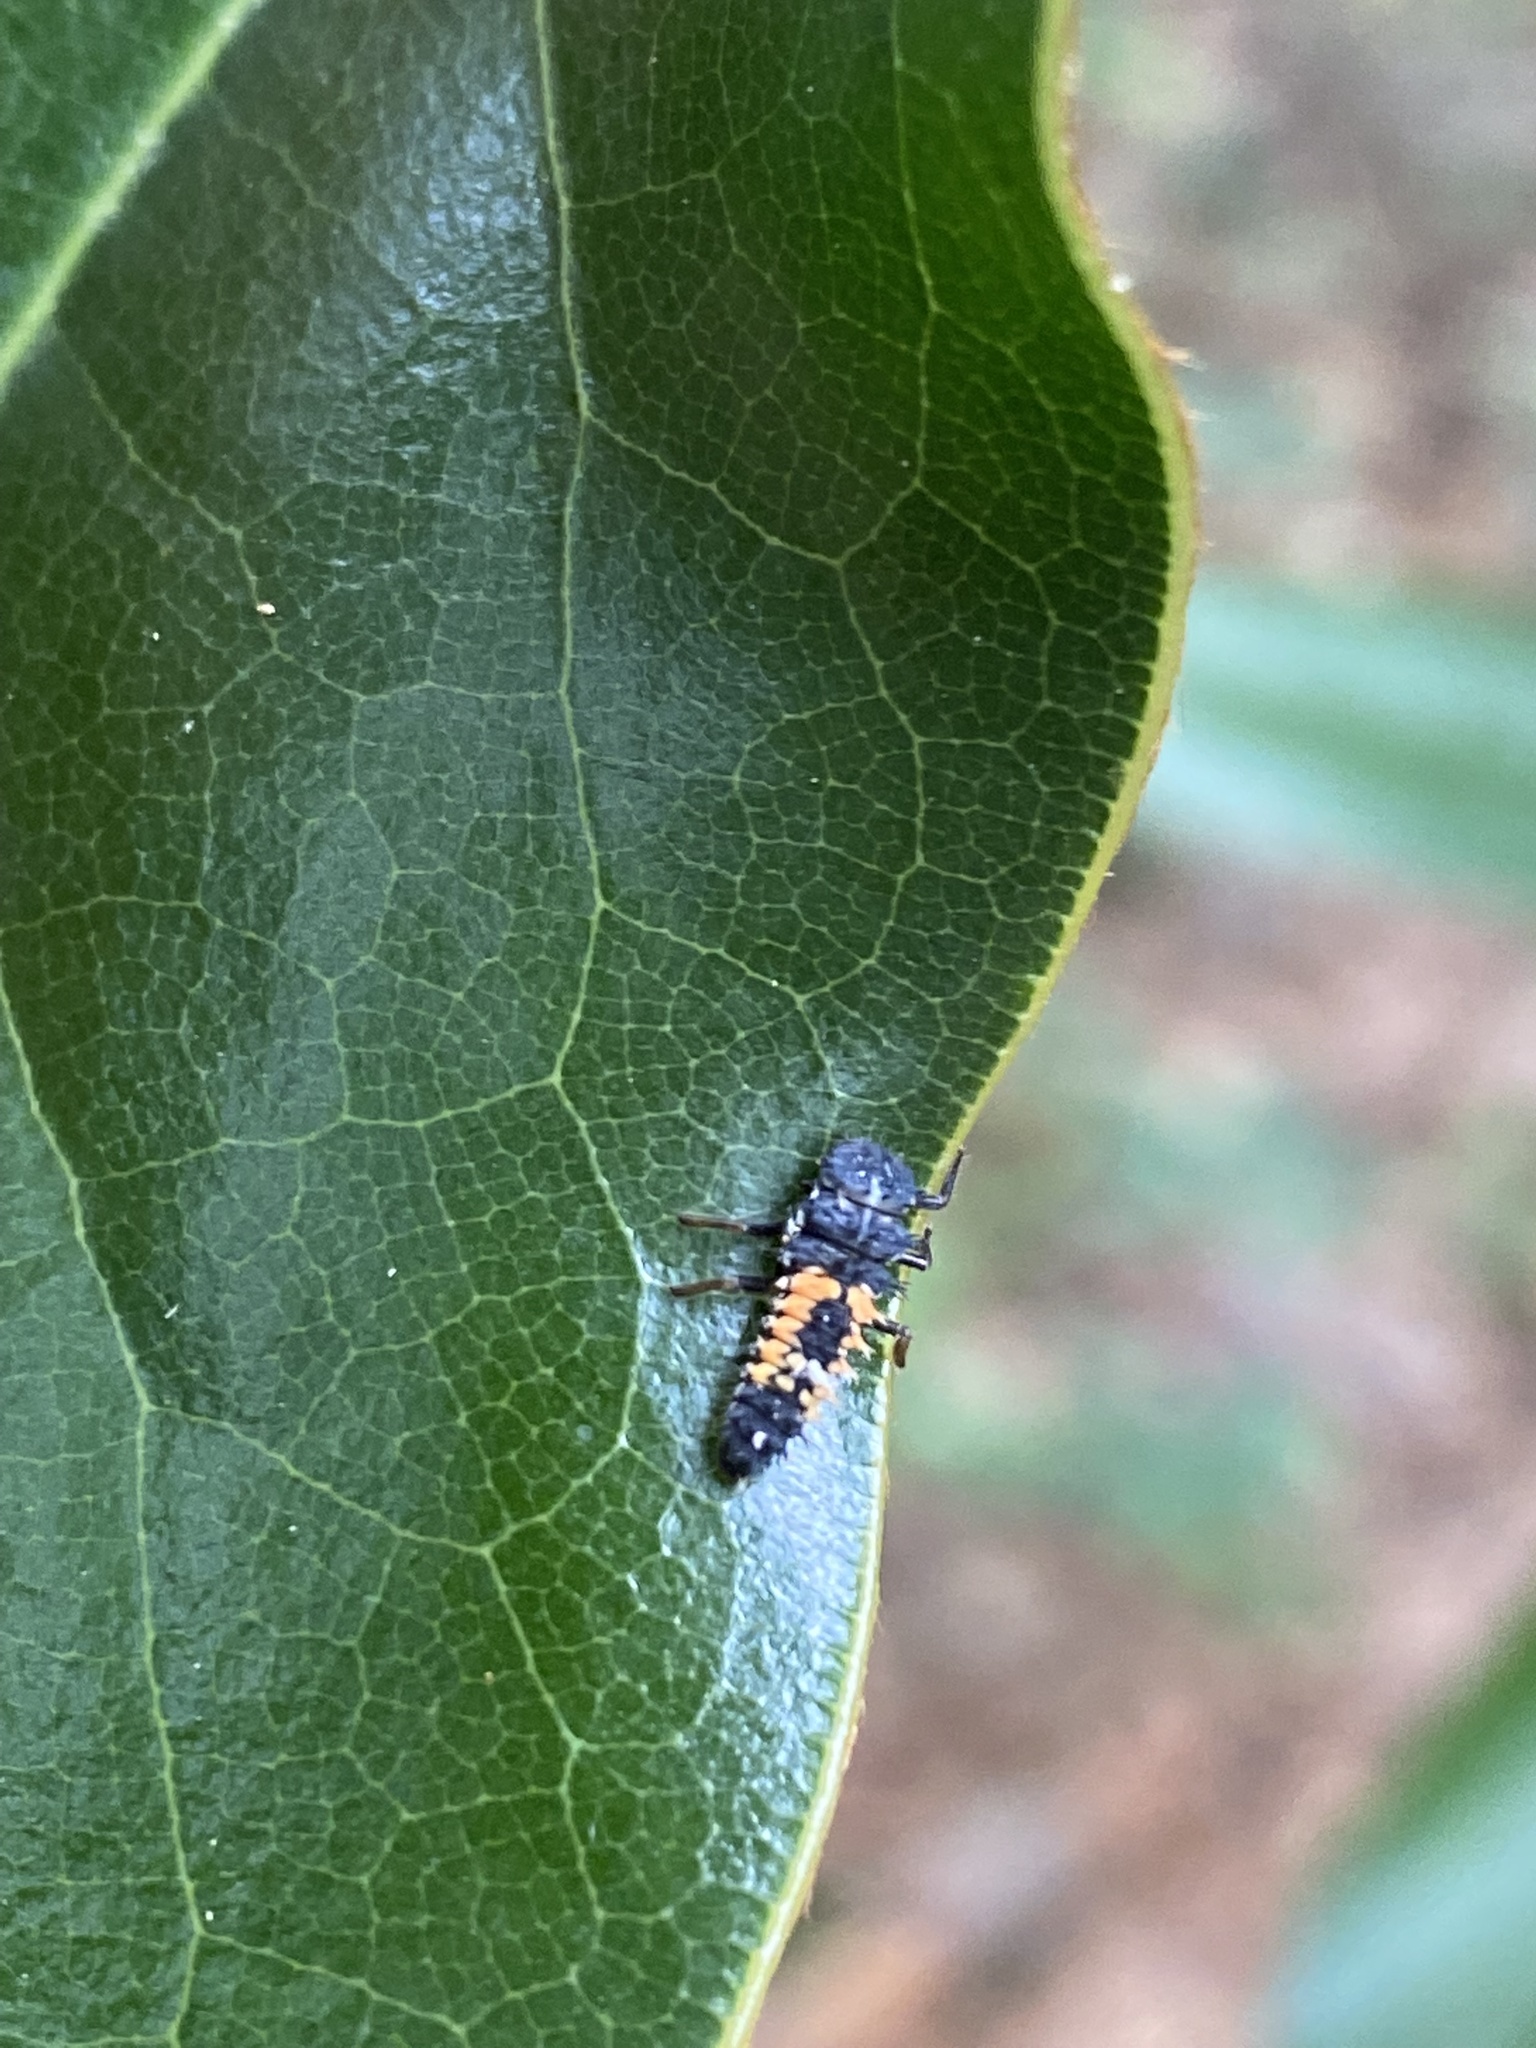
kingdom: Animalia
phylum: Arthropoda
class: Insecta
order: Coleoptera
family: Coccinellidae
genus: Harmonia
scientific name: Harmonia axyridis
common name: Harlequin ladybird
